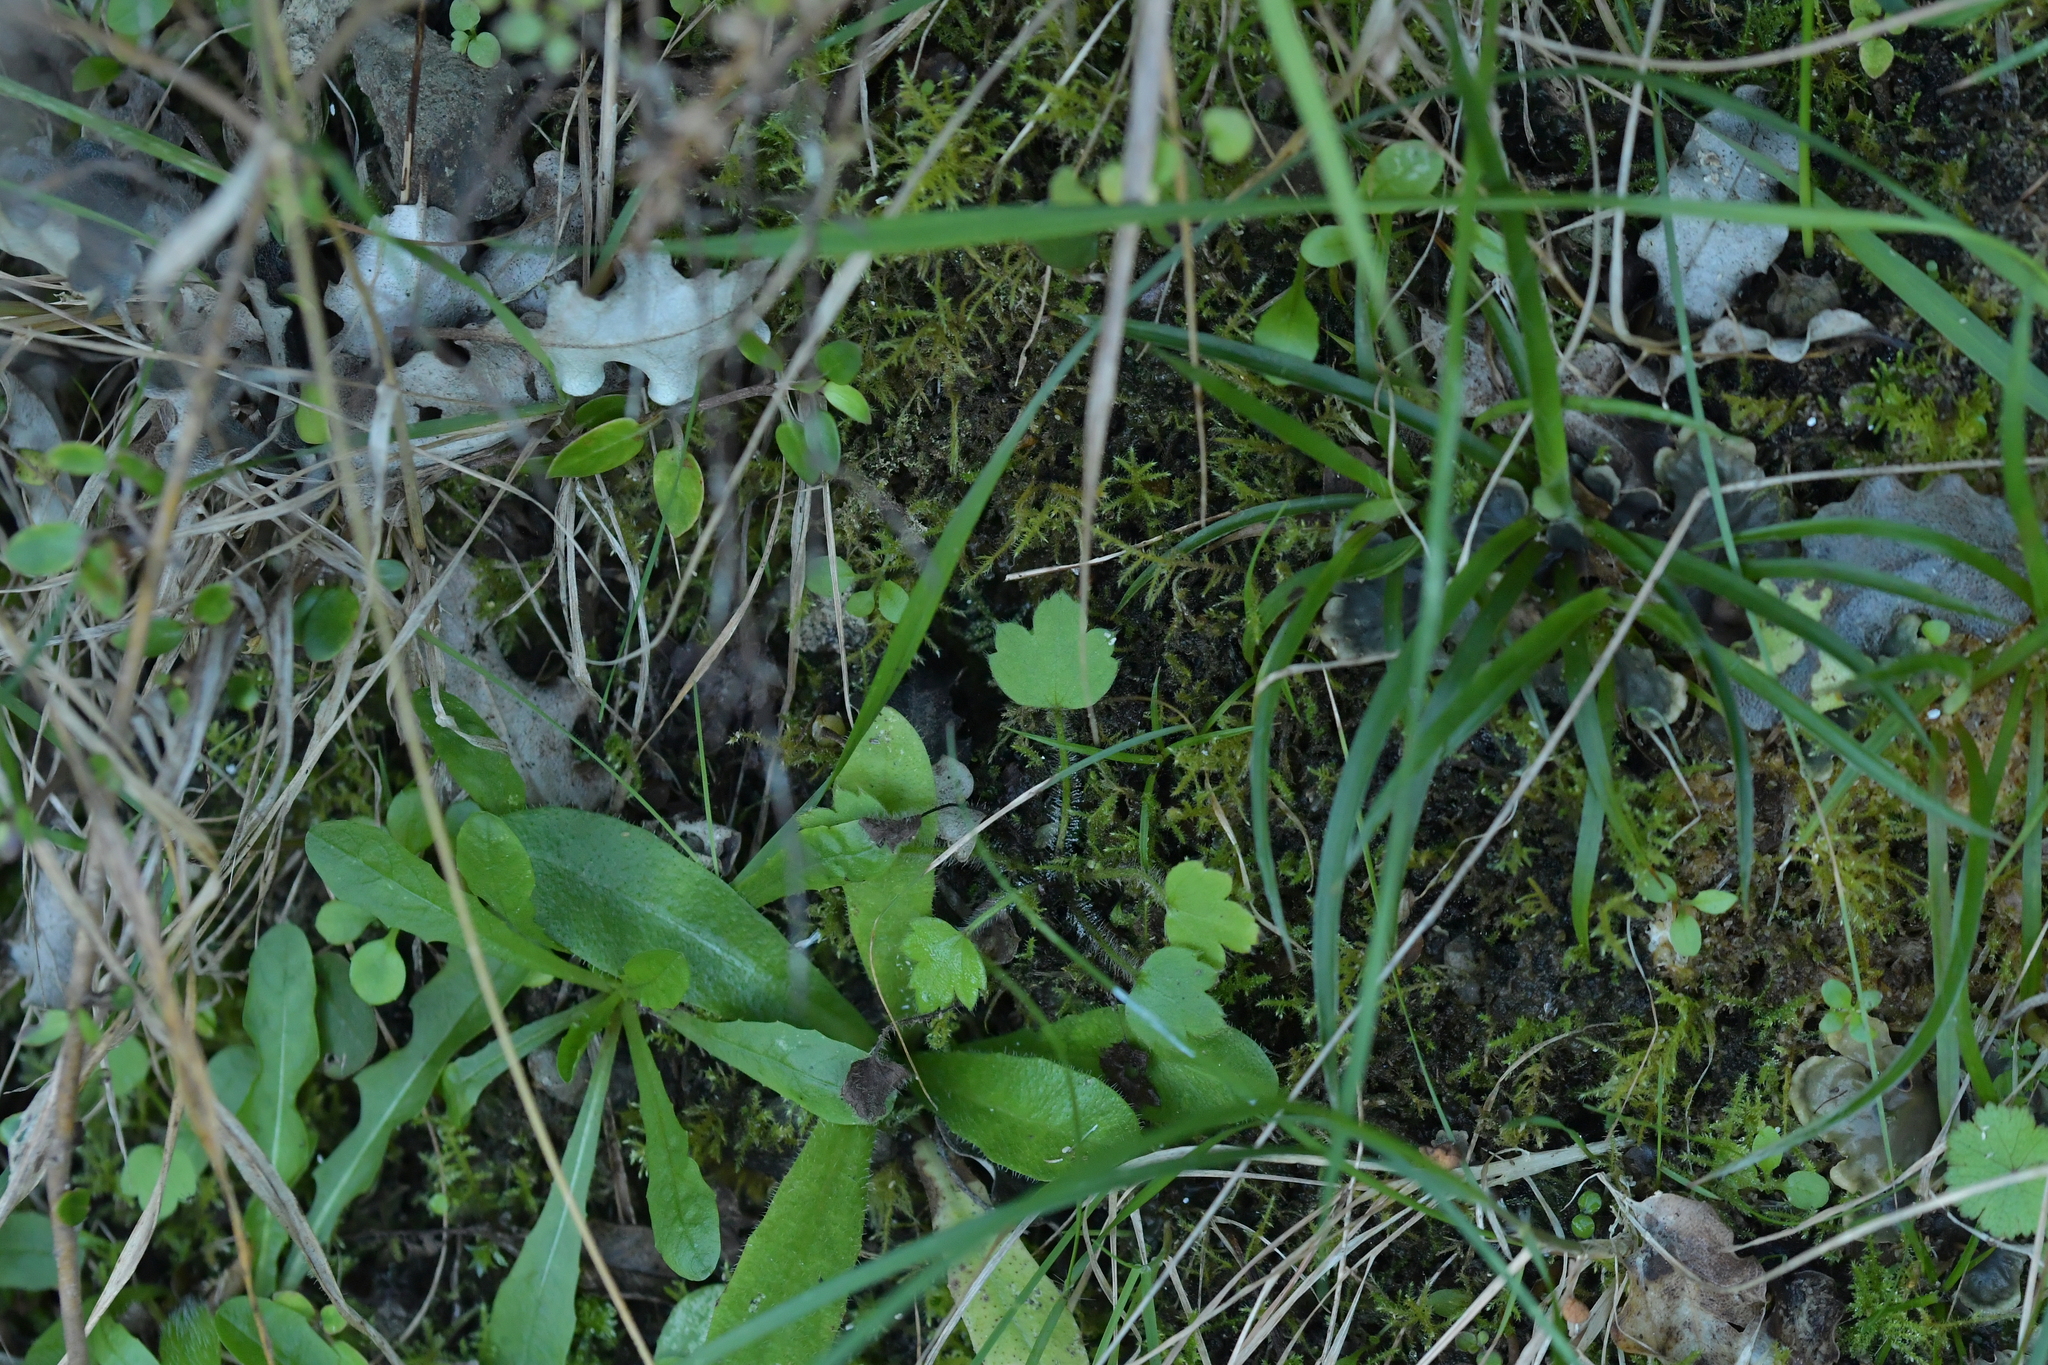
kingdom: Plantae
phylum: Tracheophyta
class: Magnoliopsida
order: Ranunculales
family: Ranunculaceae
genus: Ranunculus
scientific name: Ranunculus reflexus
